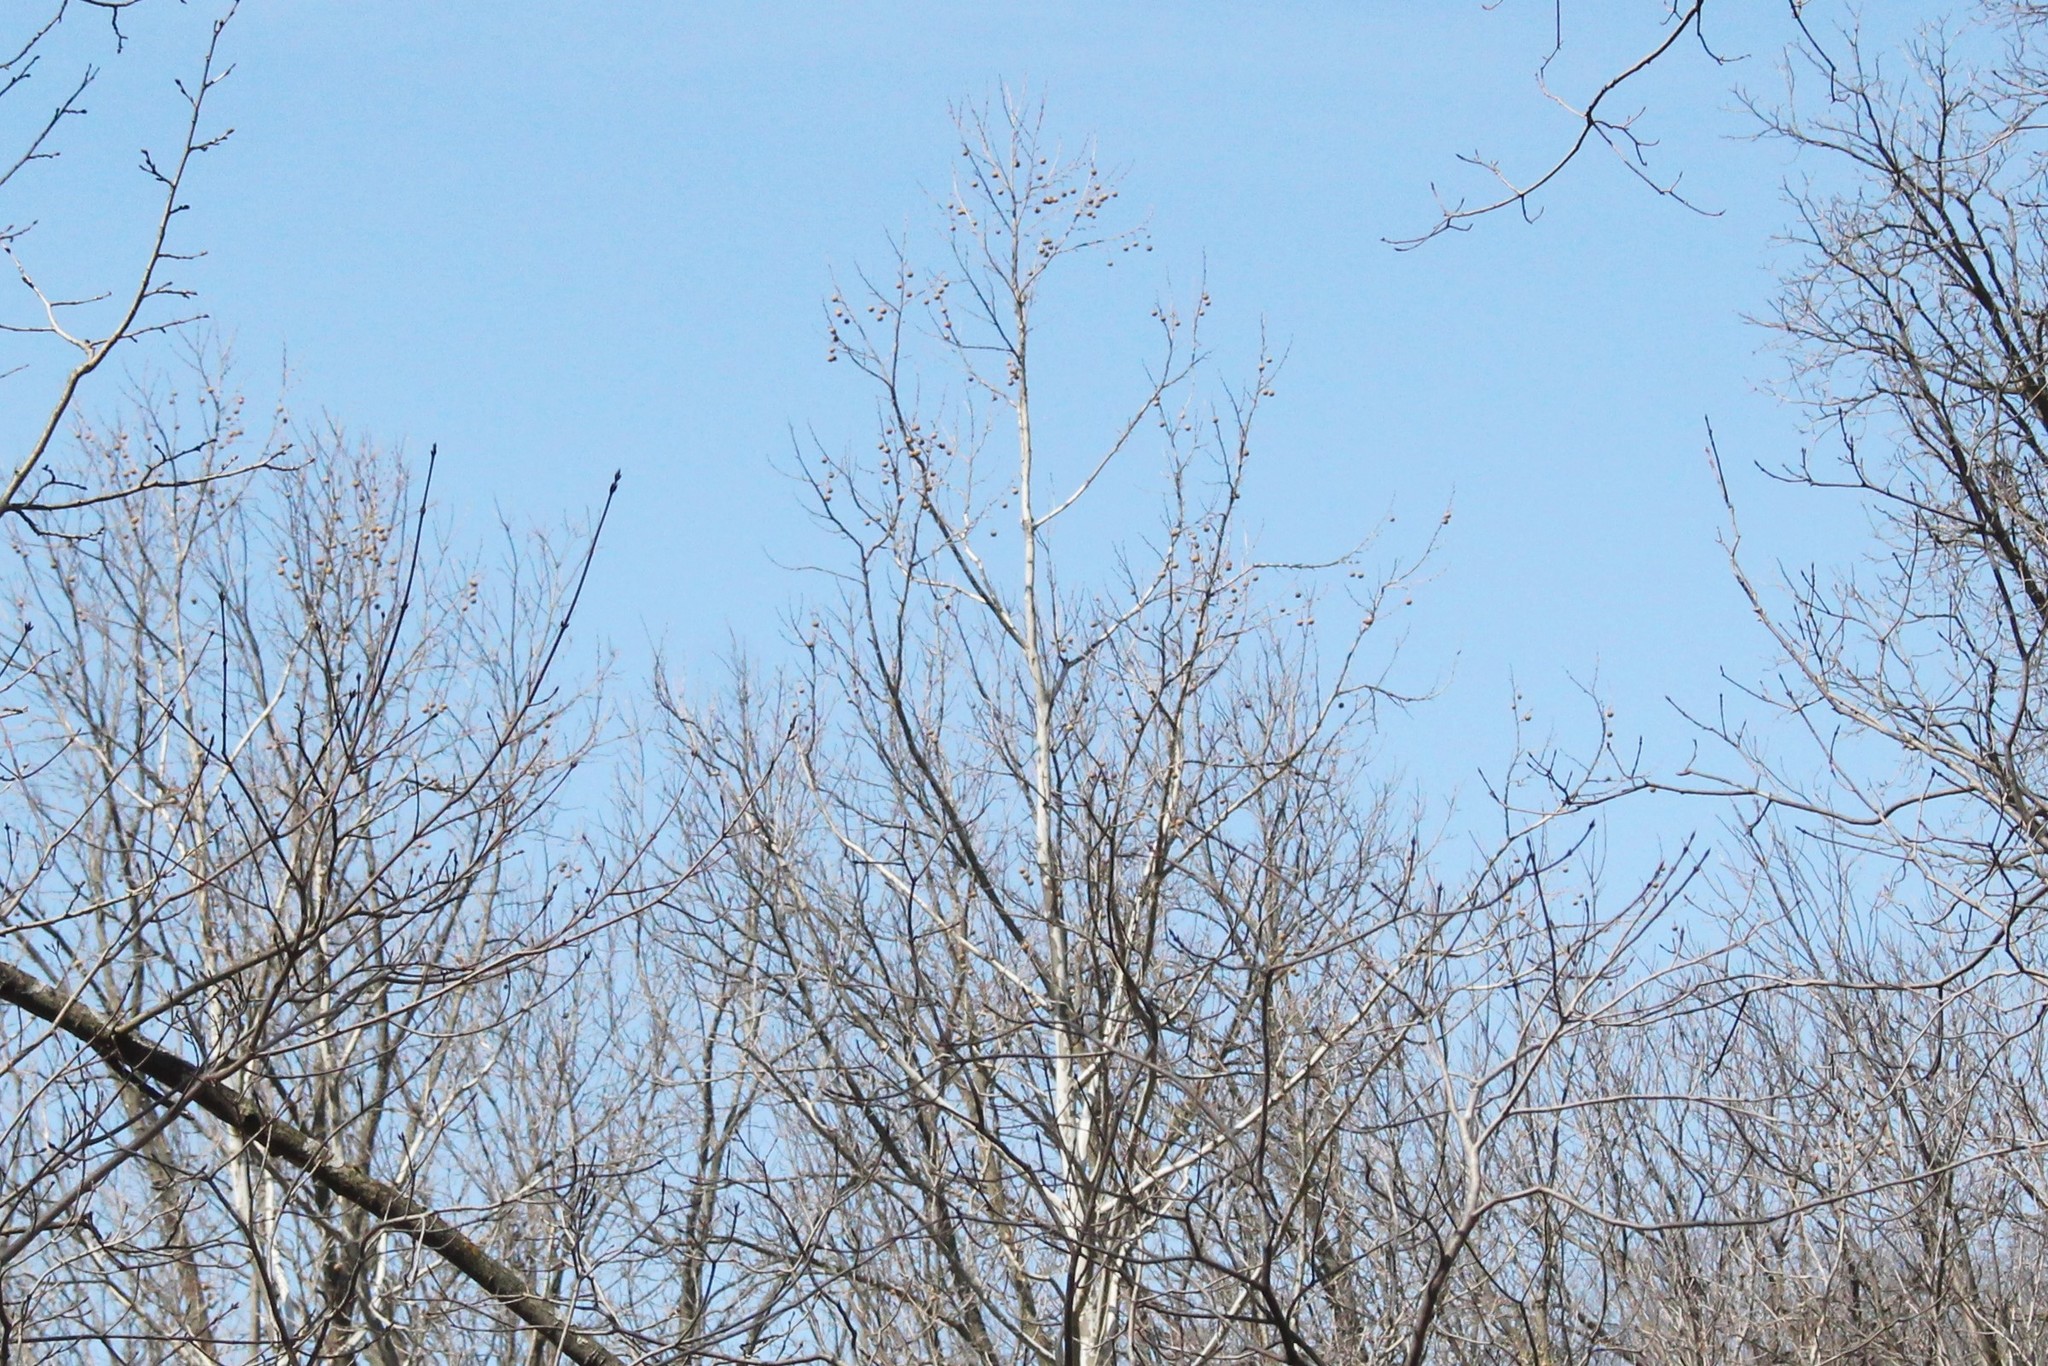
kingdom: Plantae
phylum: Tracheophyta
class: Magnoliopsida
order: Proteales
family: Platanaceae
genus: Platanus
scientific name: Platanus occidentalis
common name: American sycamore
